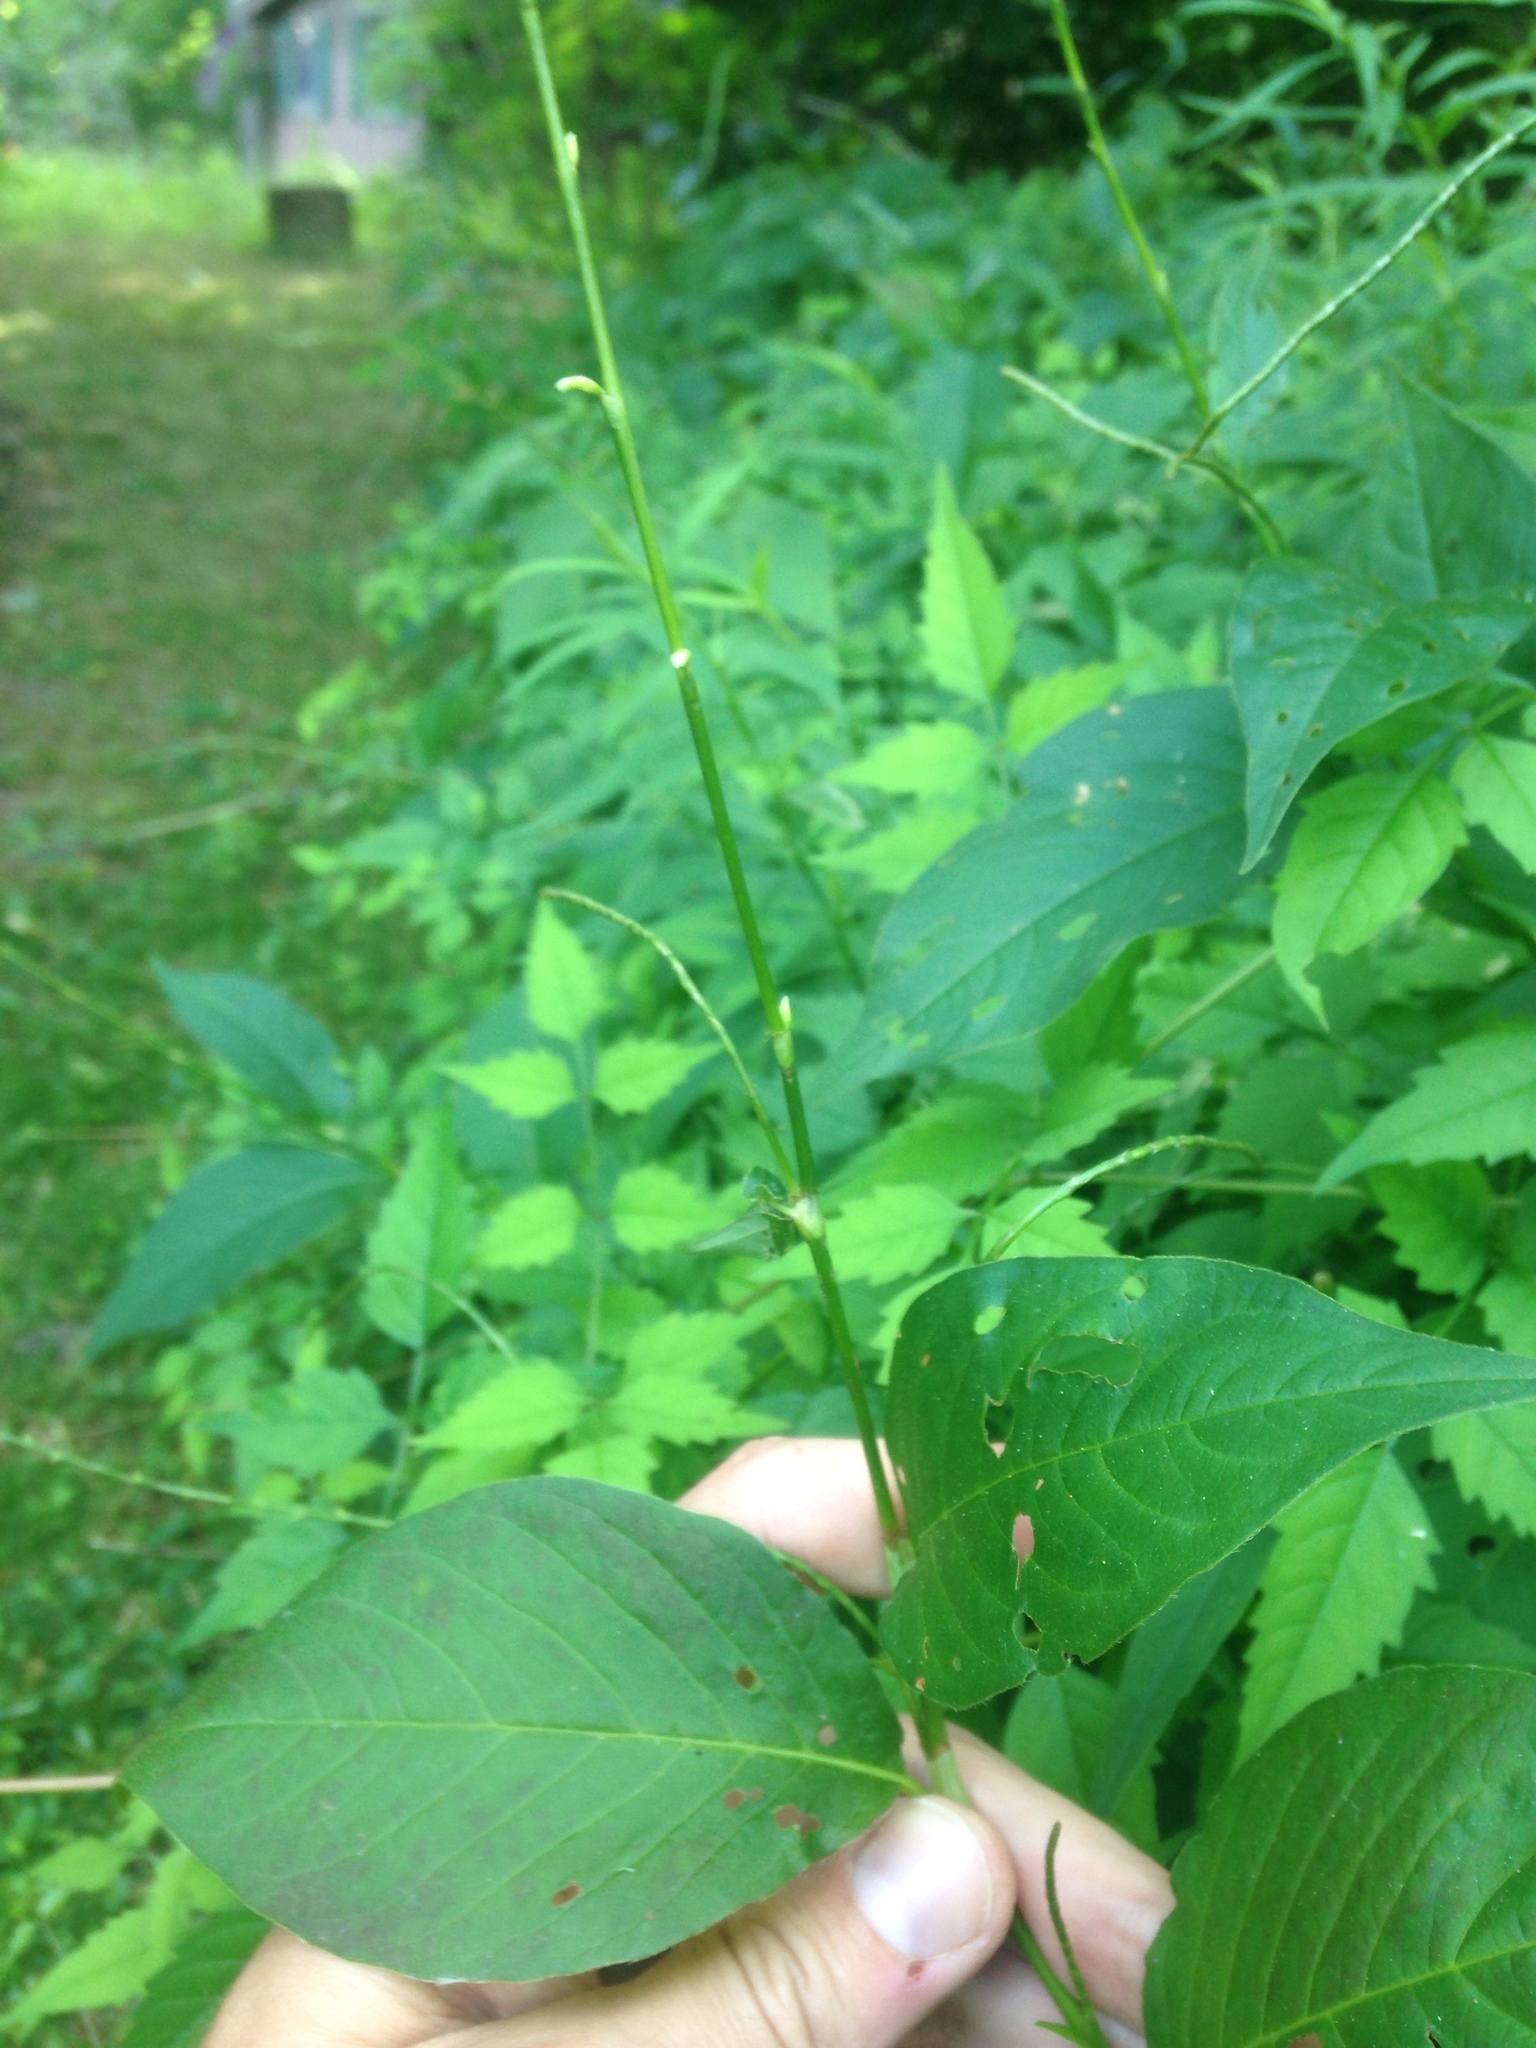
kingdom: Plantae
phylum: Tracheophyta
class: Magnoliopsida
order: Caryophyllales
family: Polygonaceae
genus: Persicaria
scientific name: Persicaria virginiana
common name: Jumpseed
